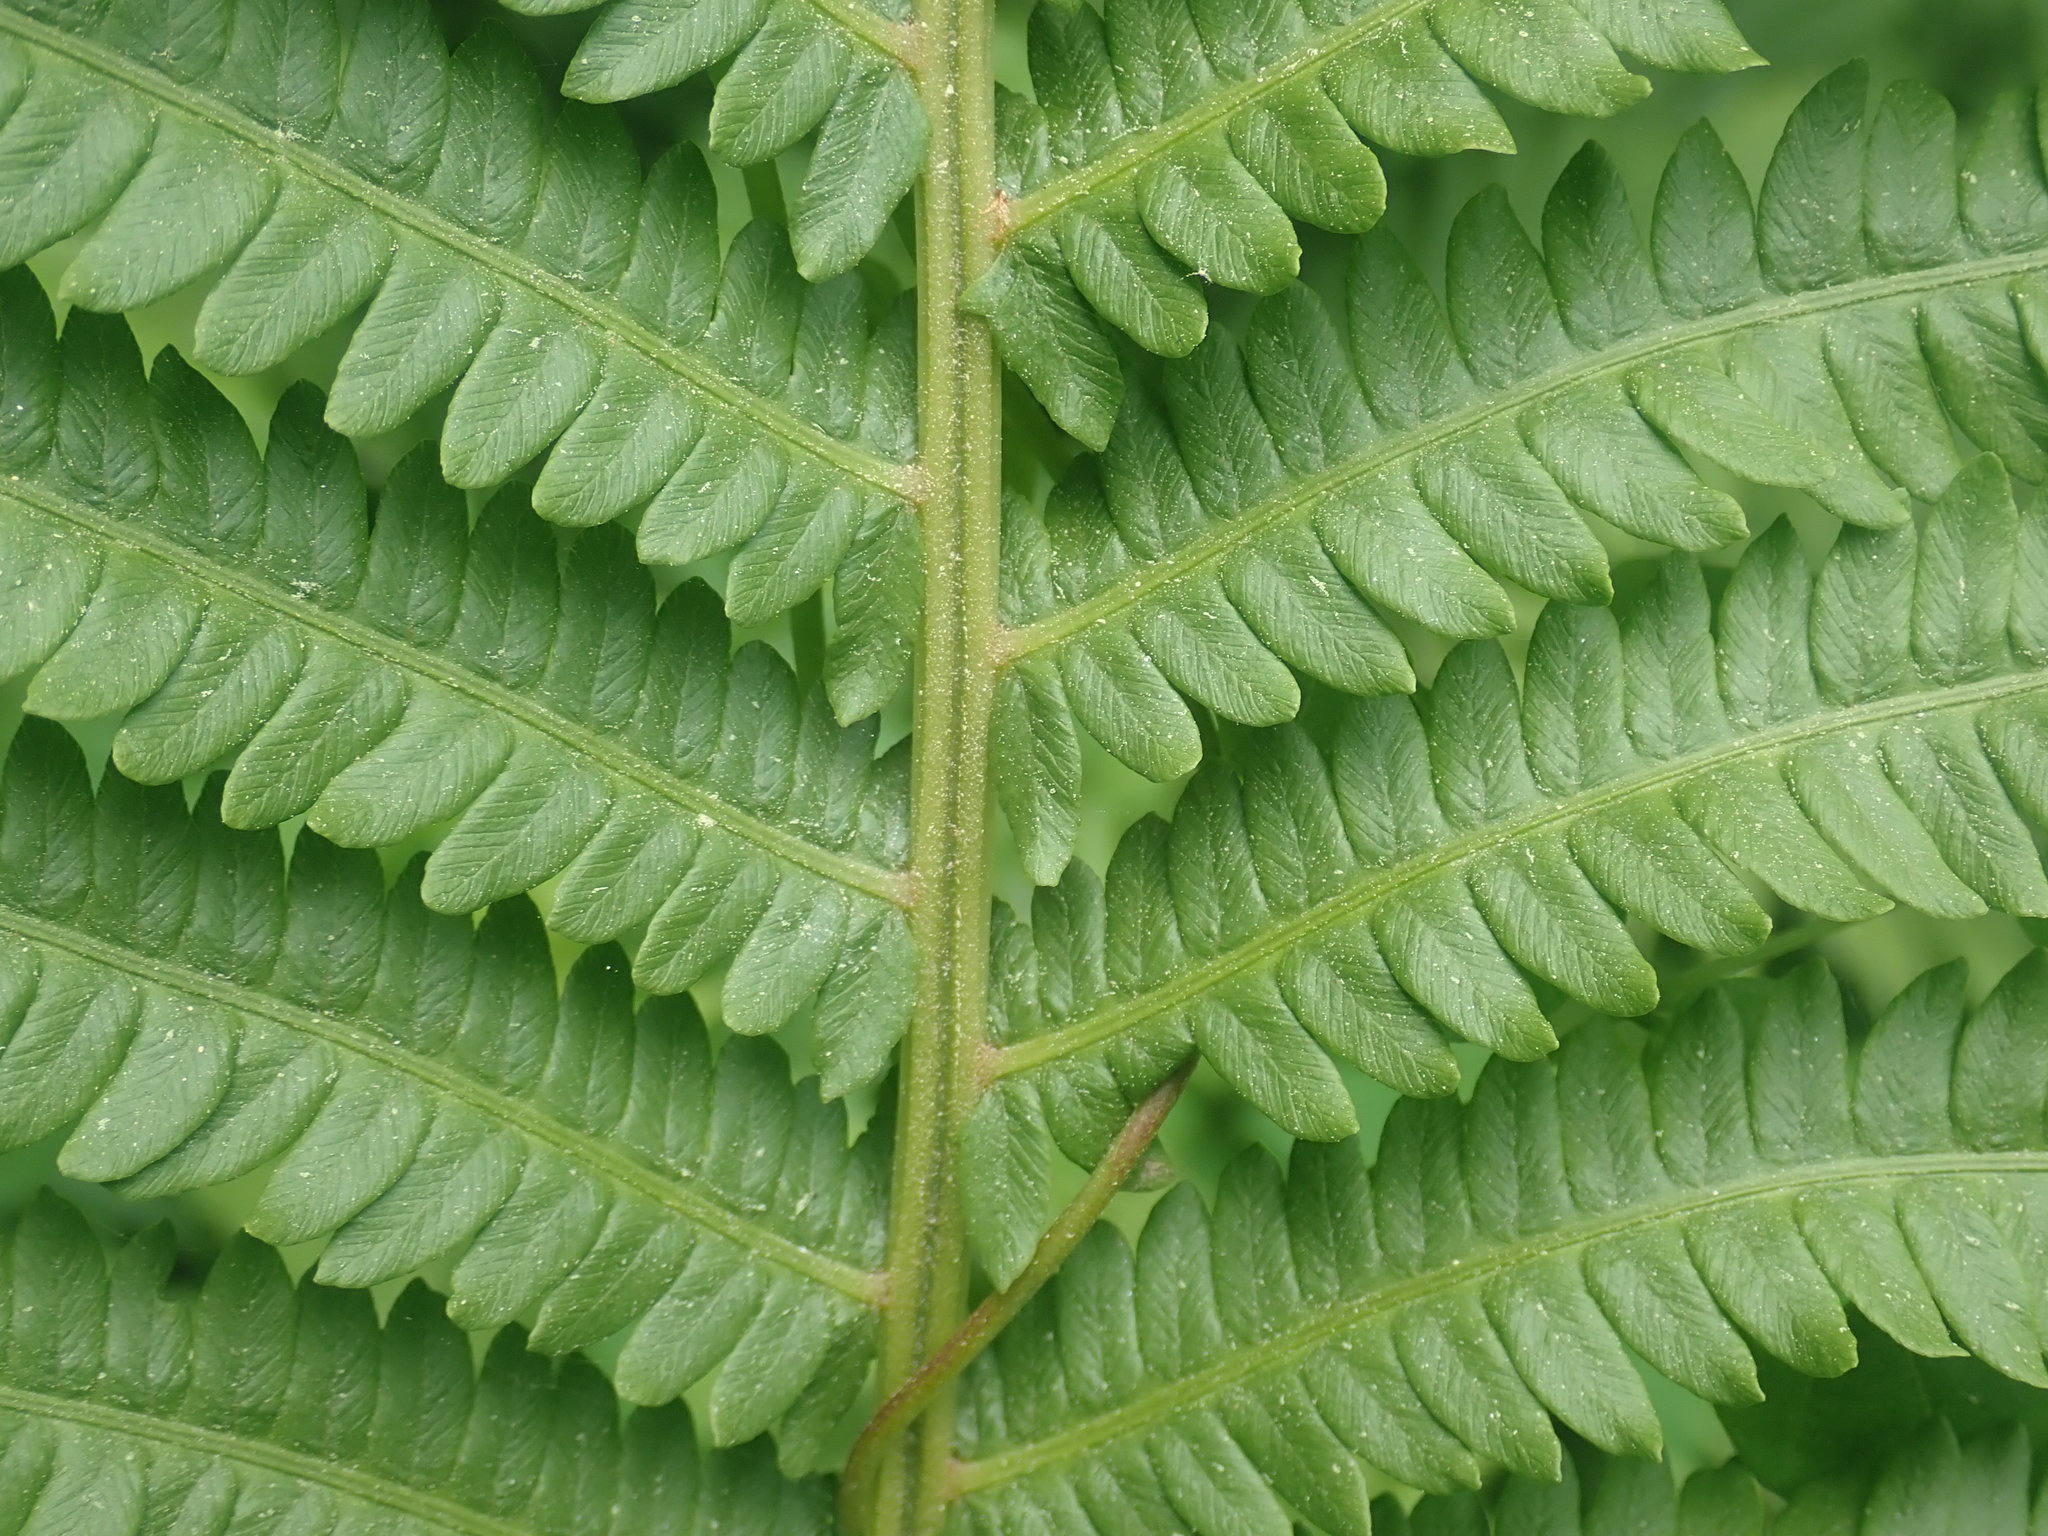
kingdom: Plantae
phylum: Tracheophyta
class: Polypodiopsida
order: Polypodiales
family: Onocleaceae
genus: Matteuccia
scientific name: Matteuccia struthiopteris
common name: Ostrich fern
